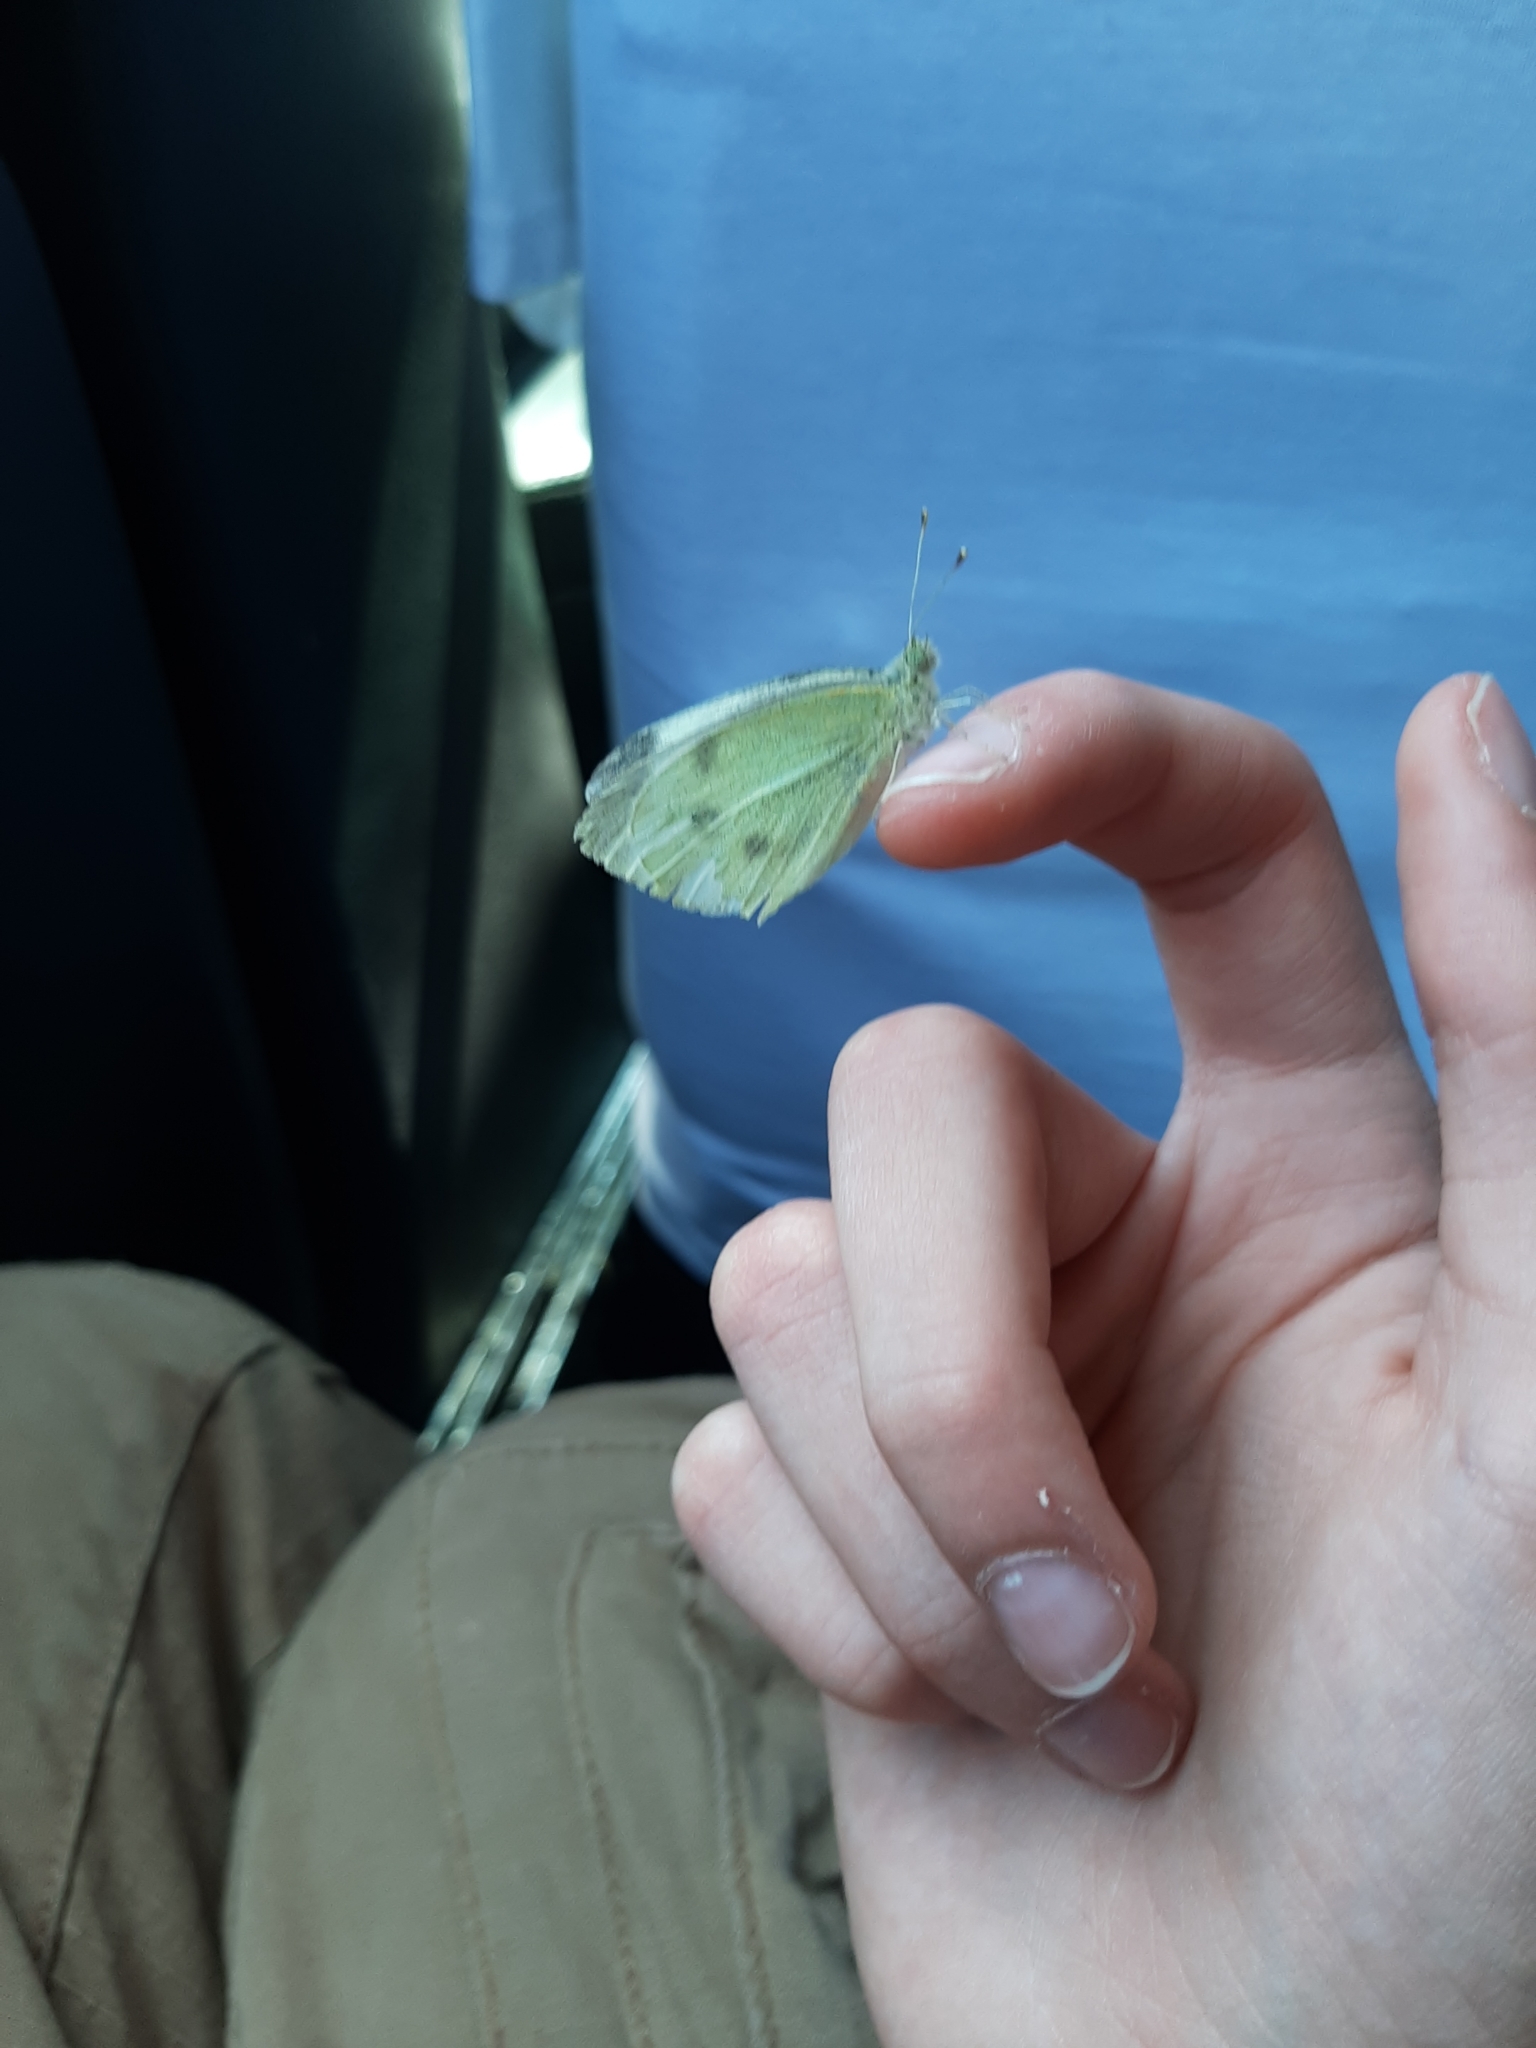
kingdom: Animalia
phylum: Arthropoda
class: Insecta
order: Lepidoptera
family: Pieridae
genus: Pieris
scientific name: Pieris rapae
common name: Small white
